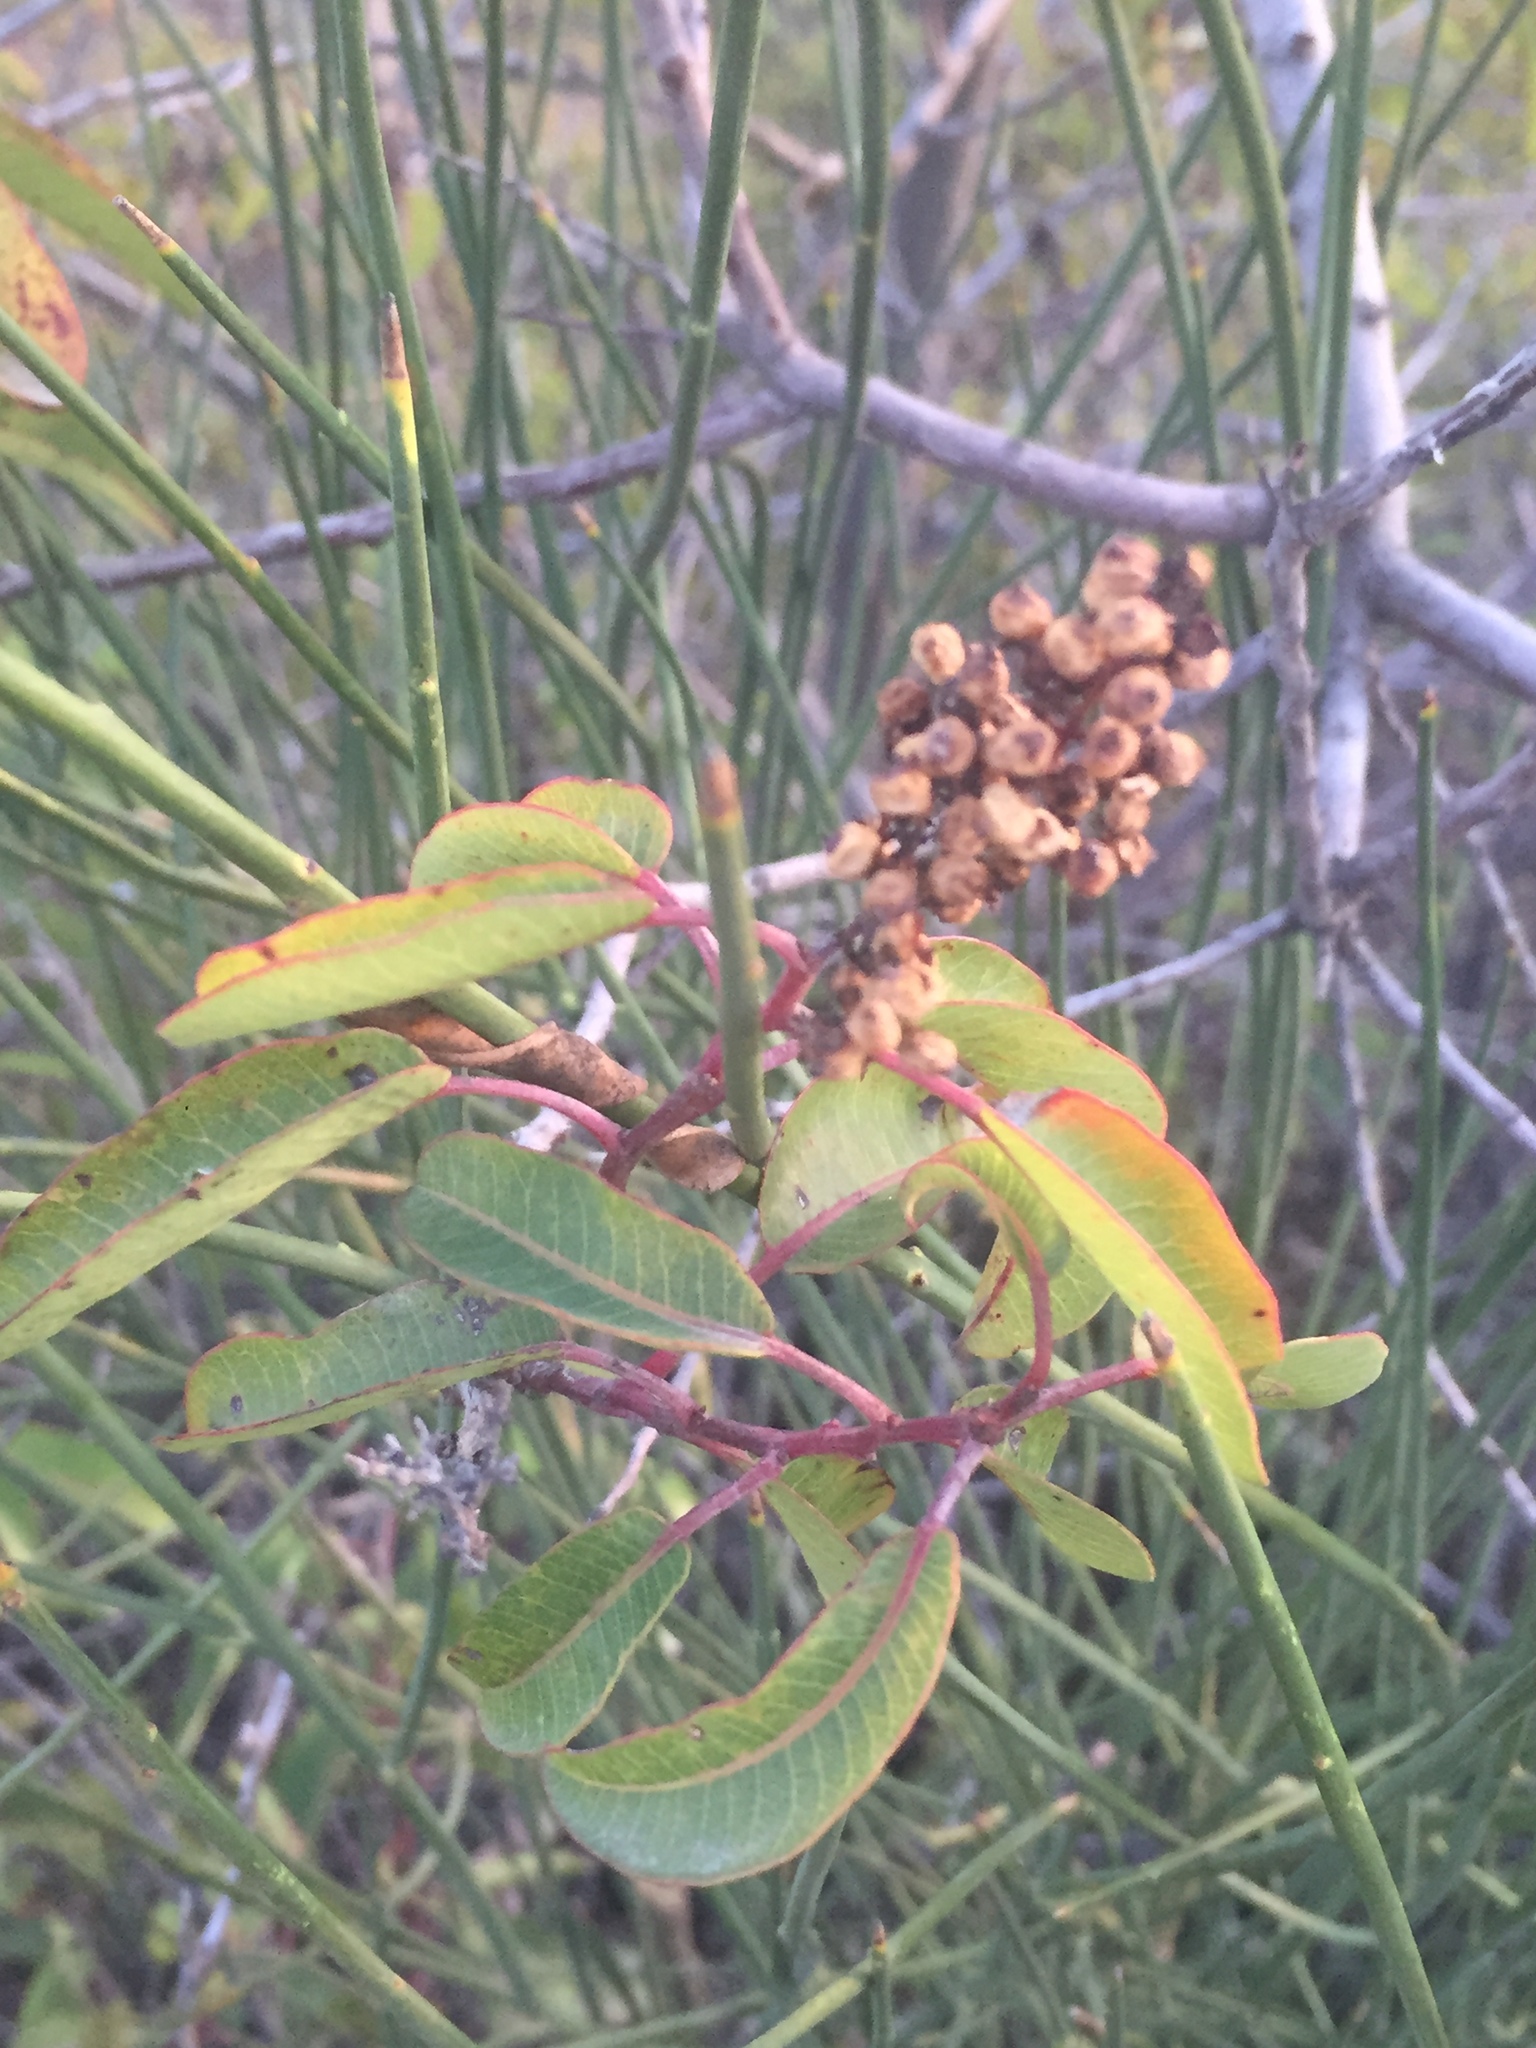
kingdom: Plantae
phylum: Tracheophyta
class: Magnoliopsida
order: Sapindales
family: Anacardiaceae
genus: Malosma
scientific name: Malosma laurina
